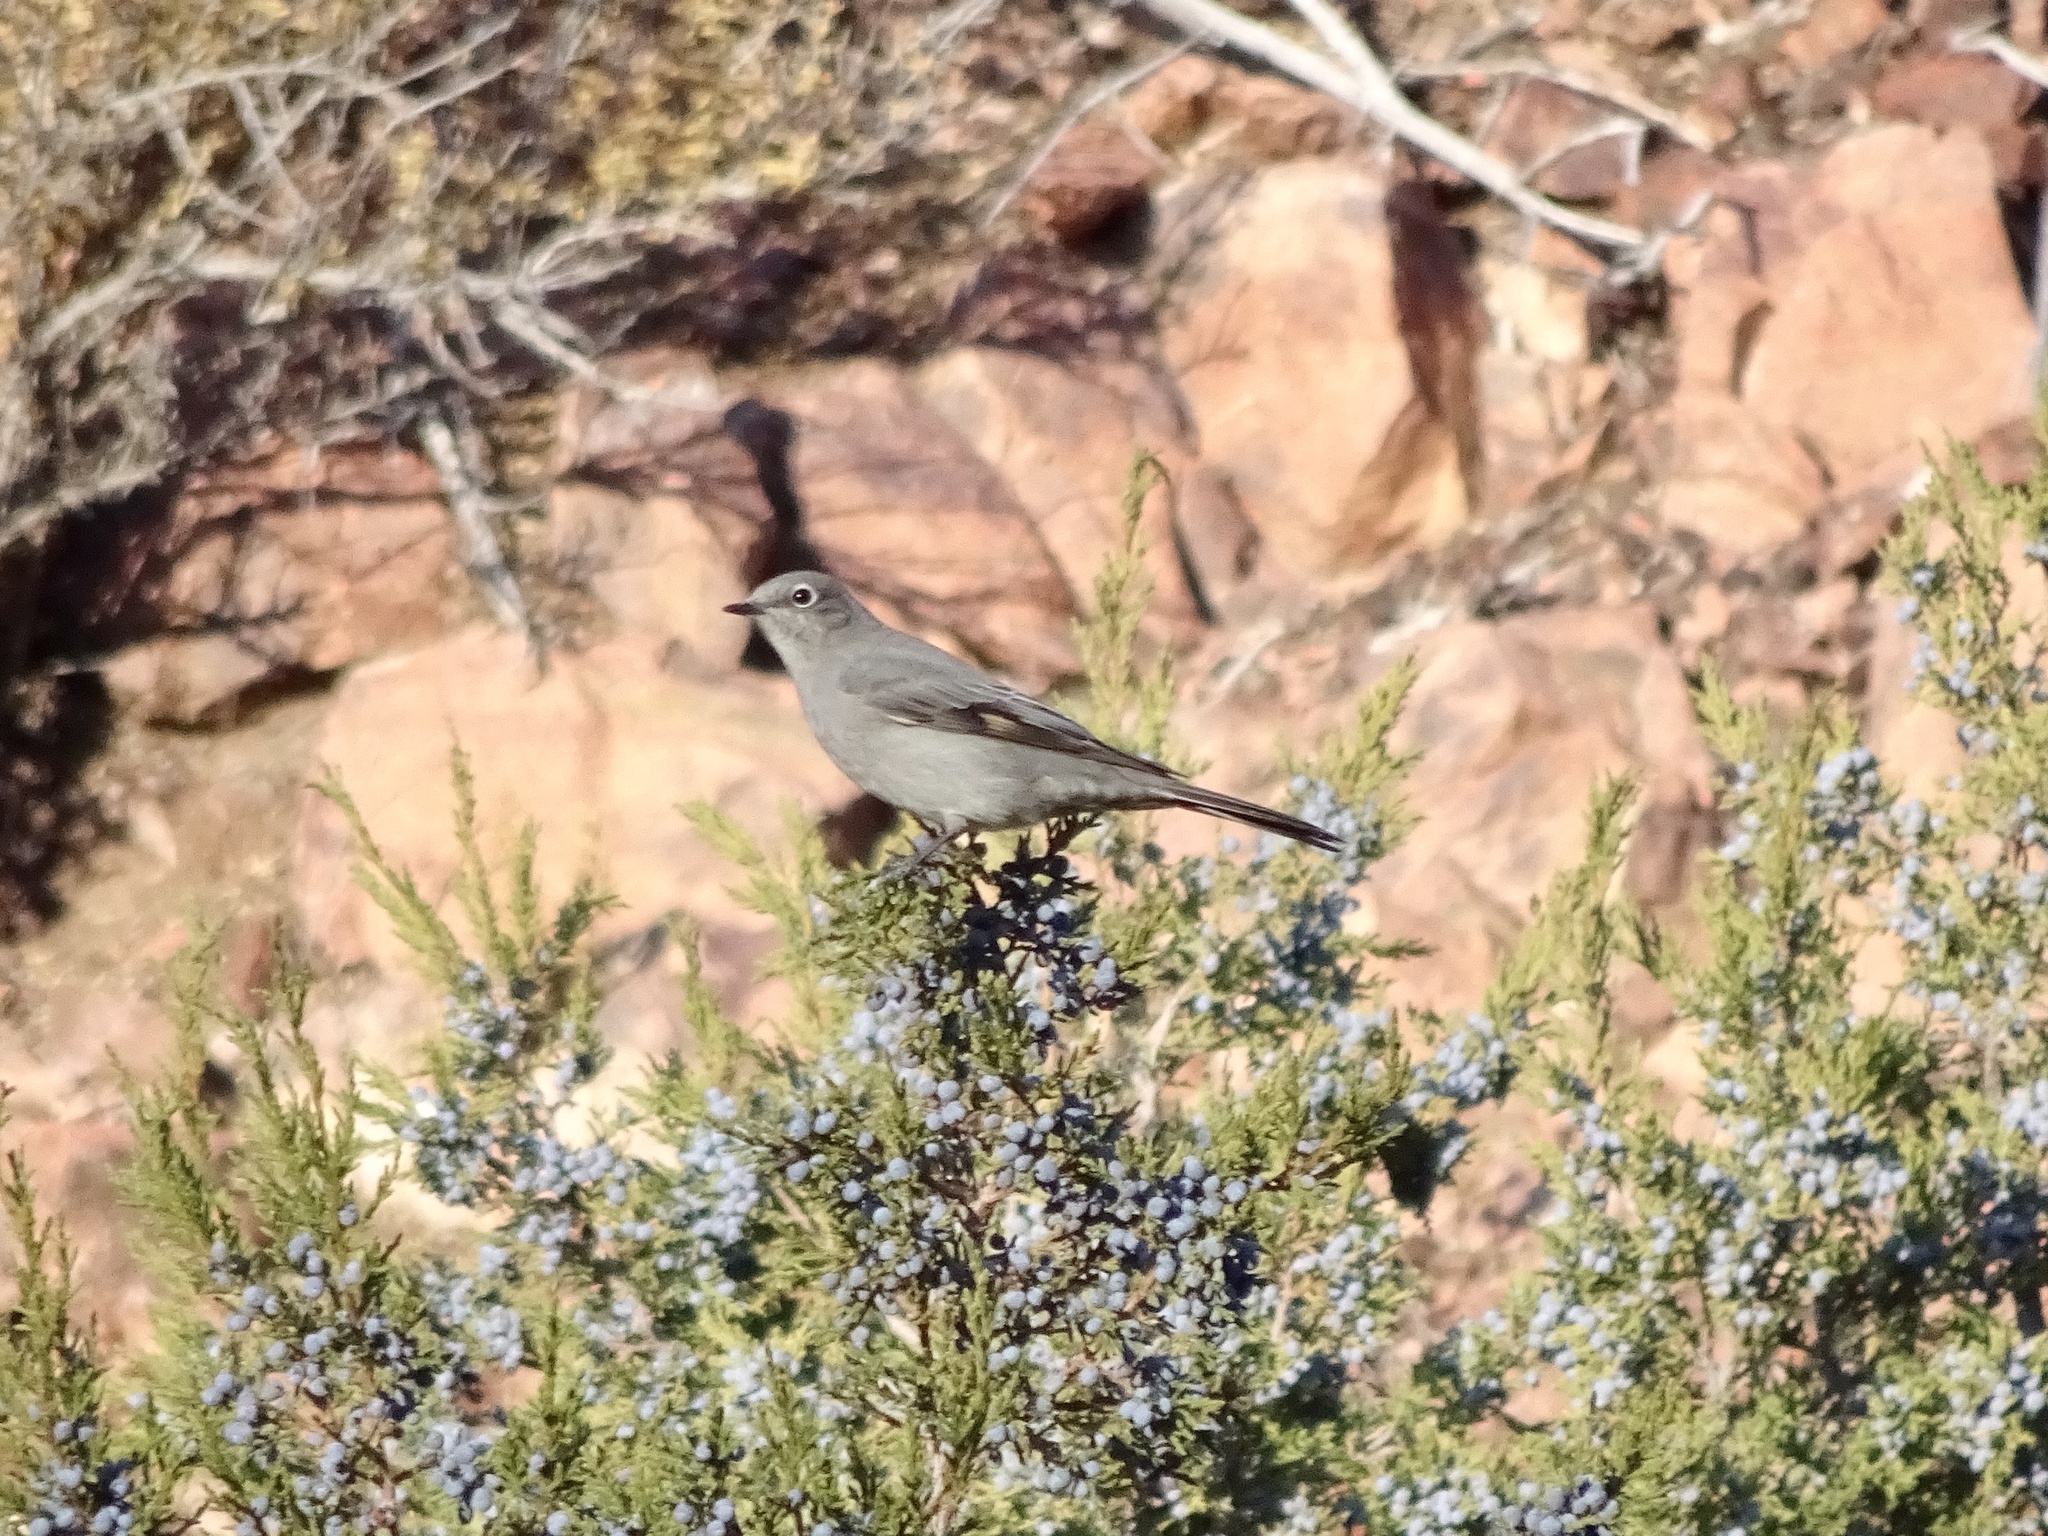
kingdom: Animalia
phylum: Chordata
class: Aves
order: Passeriformes
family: Turdidae
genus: Myadestes
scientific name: Myadestes townsendi
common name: Townsend's solitaire
